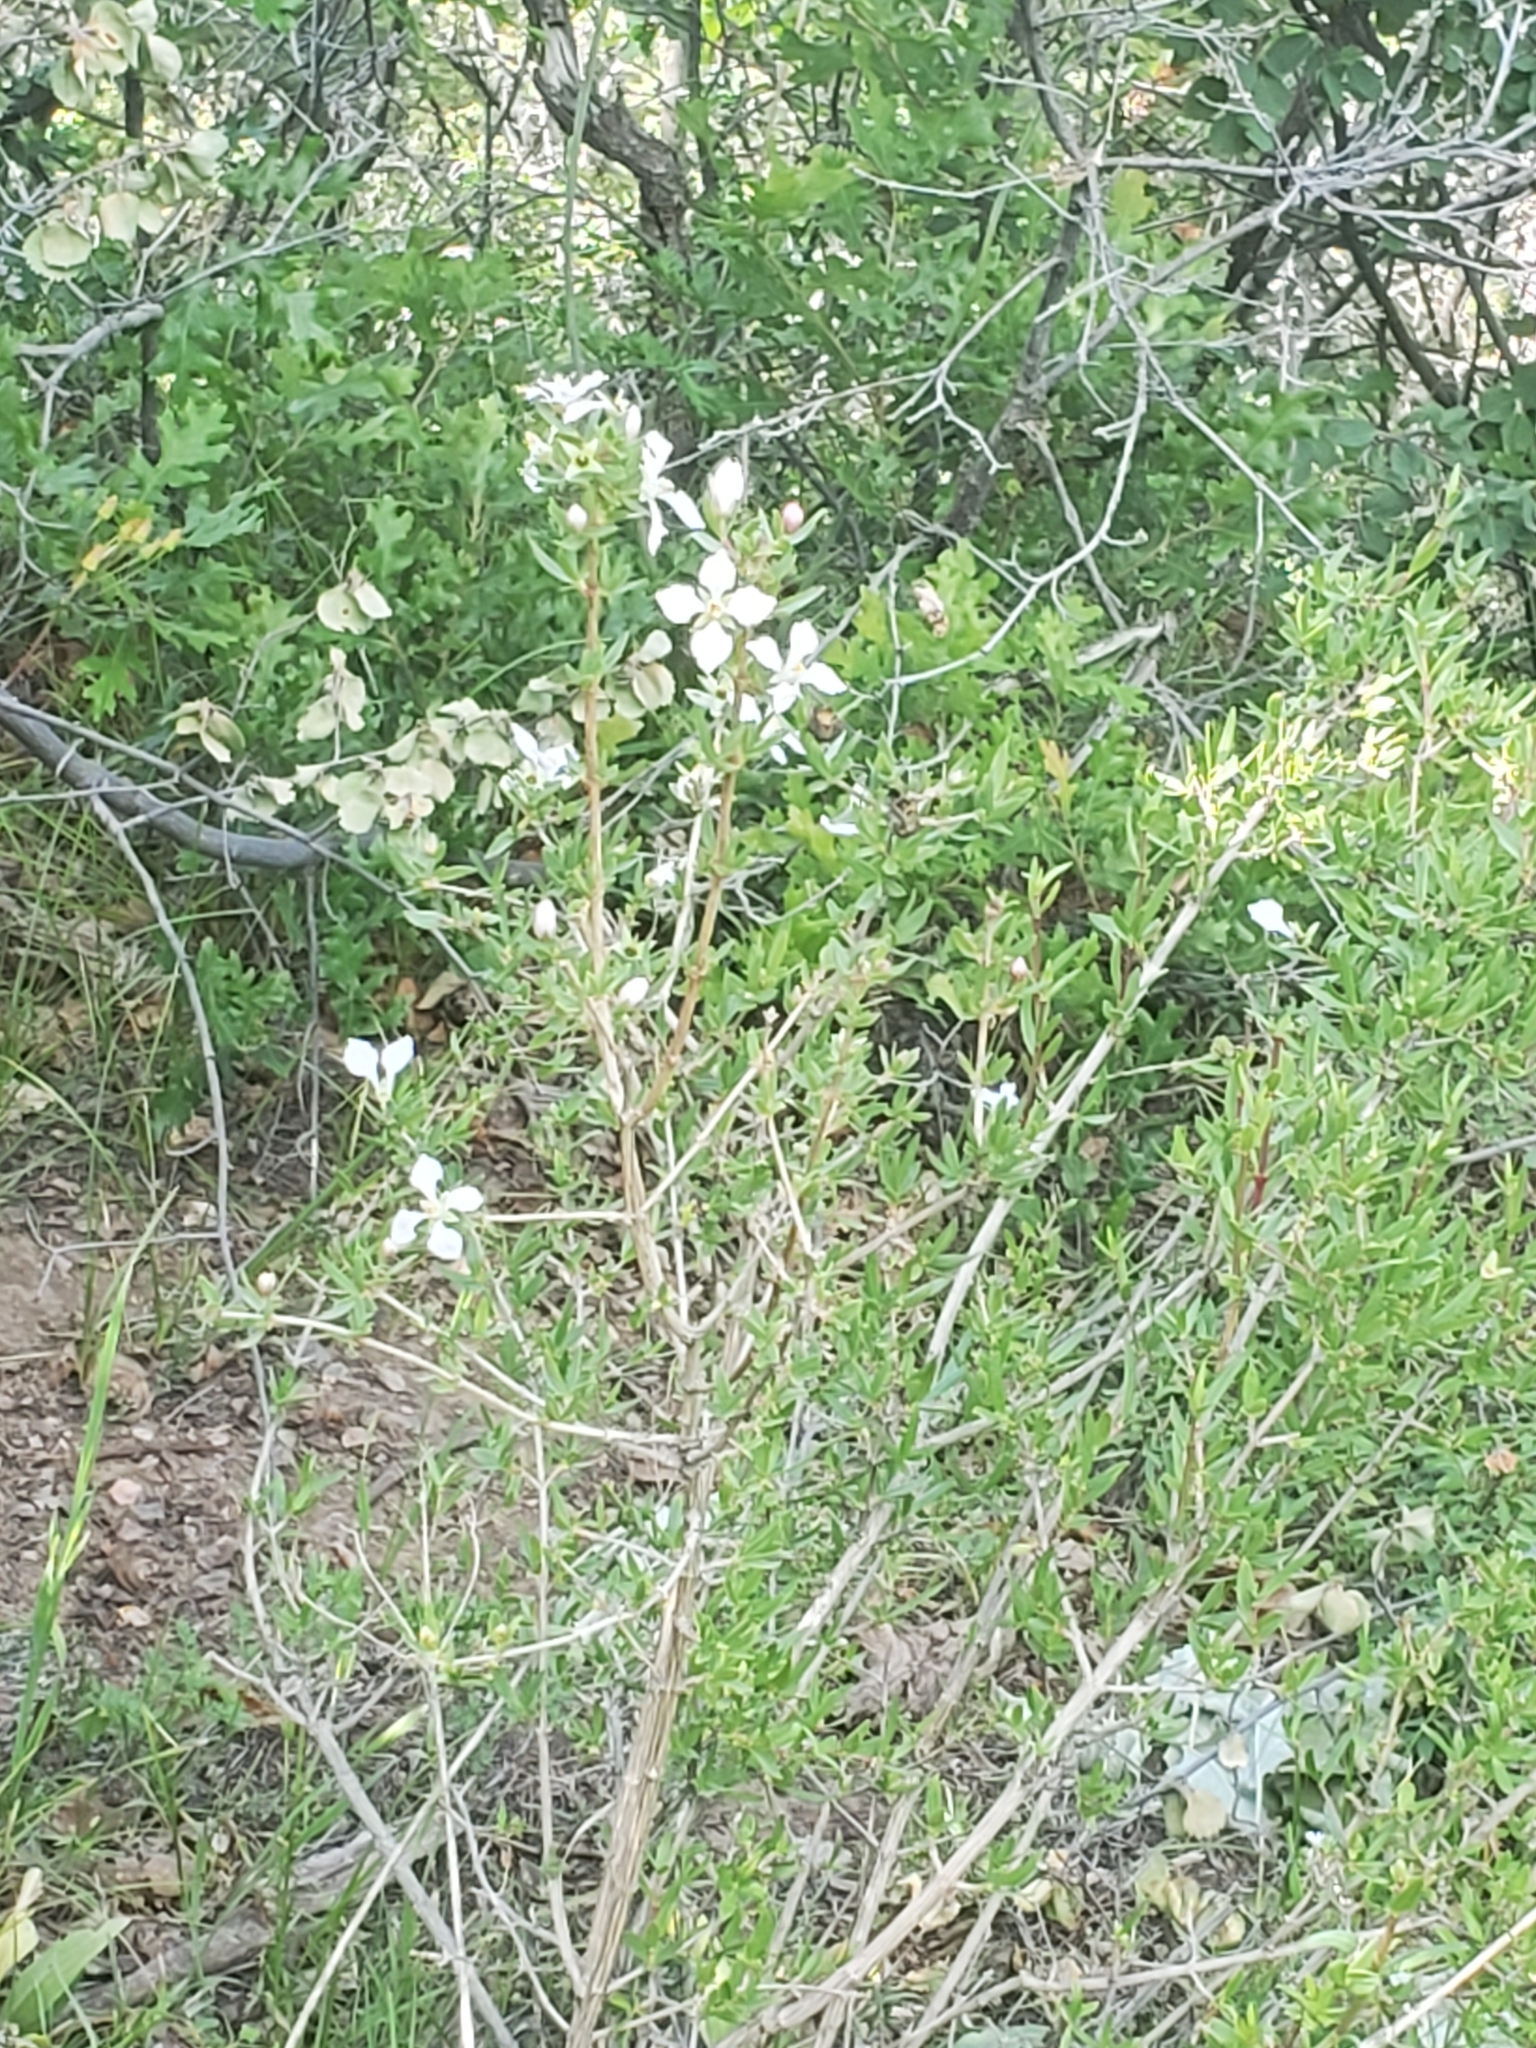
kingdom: Plantae
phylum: Tracheophyta
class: Magnoliopsida
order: Cornales
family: Hydrangeaceae
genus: Fendlera
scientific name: Fendlera rupicola
